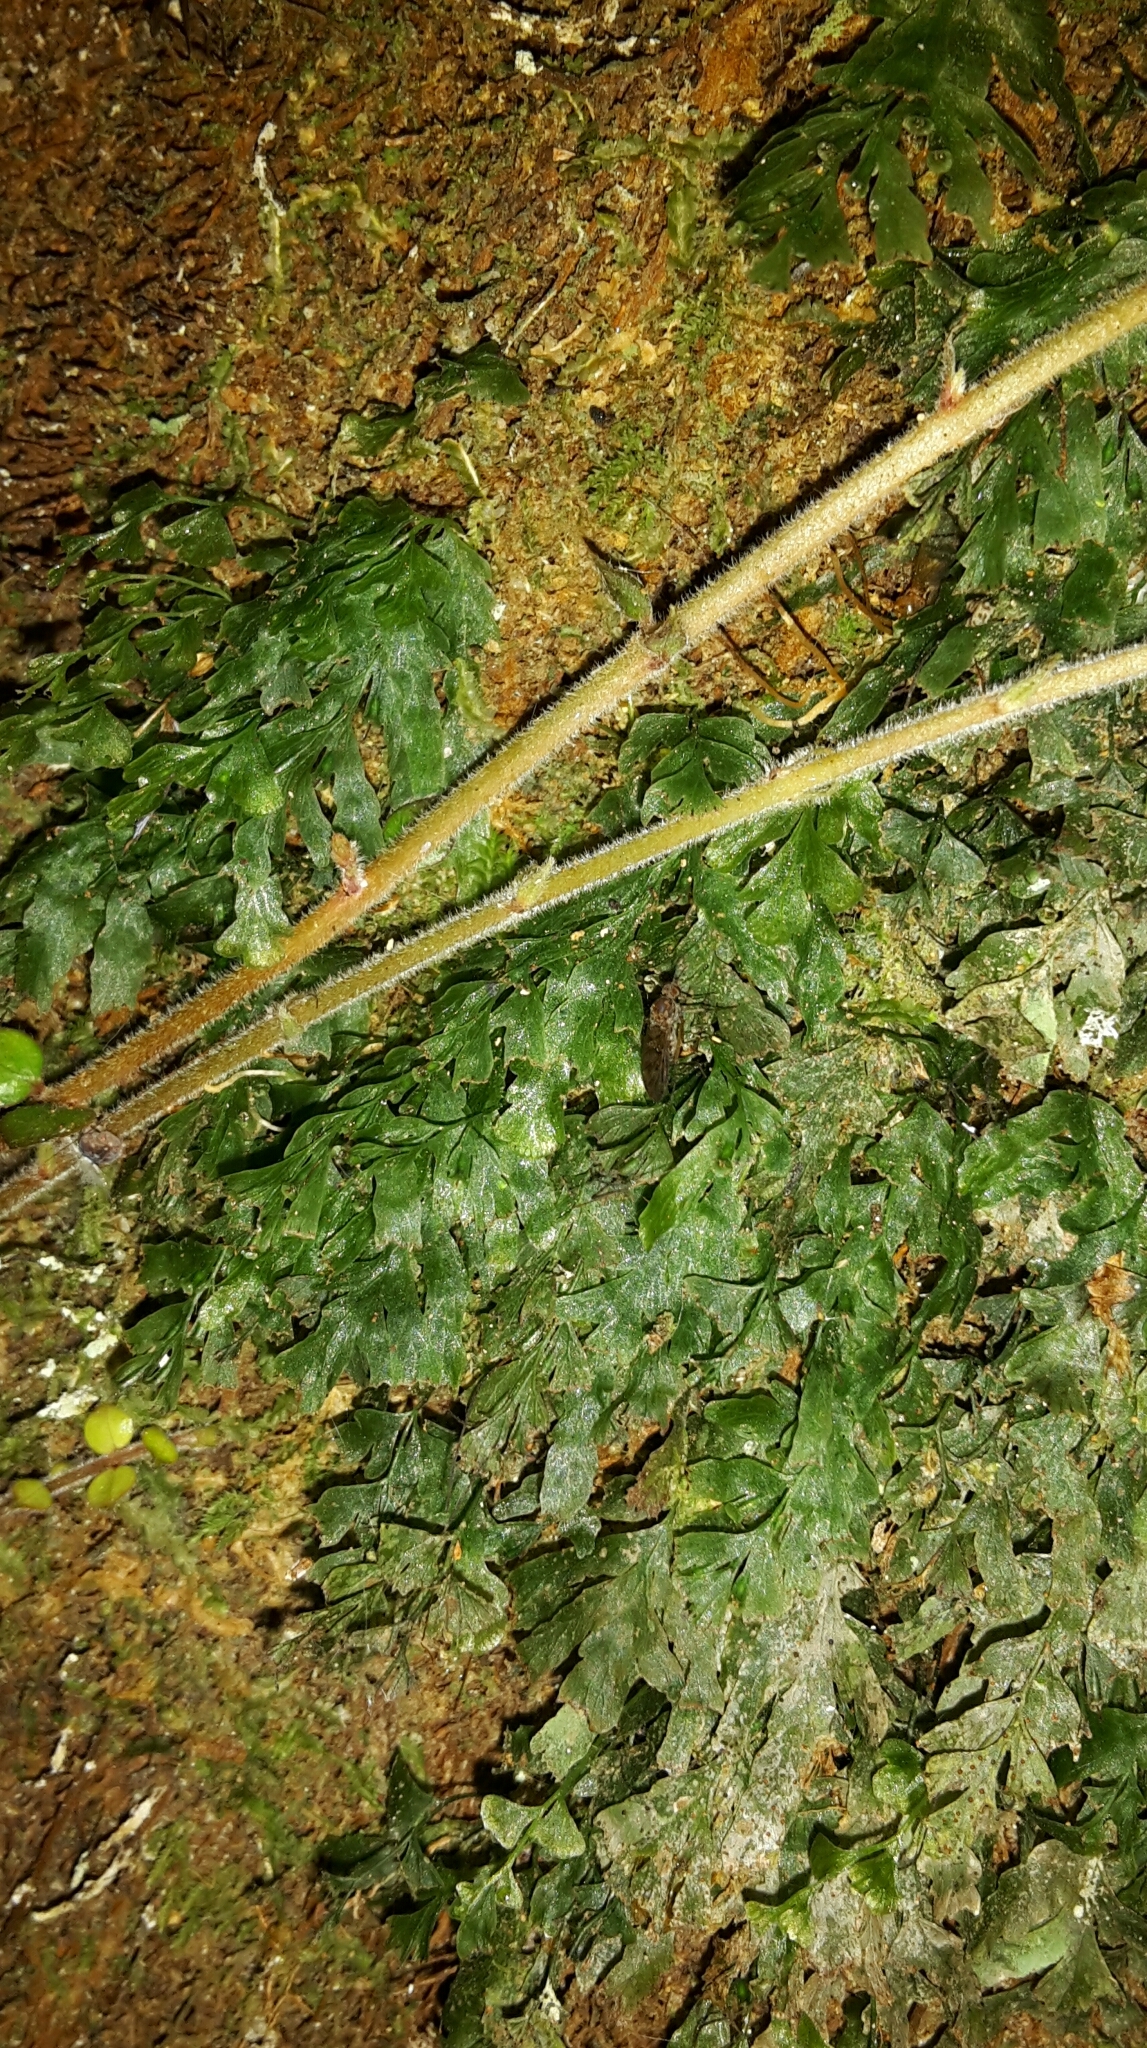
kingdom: Plantae
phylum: Tracheophyta
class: Polypodiopsida
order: Hymenophyllales
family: Hymenophyllaceae
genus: Polyphlebium
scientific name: Polyphlebium venosum
